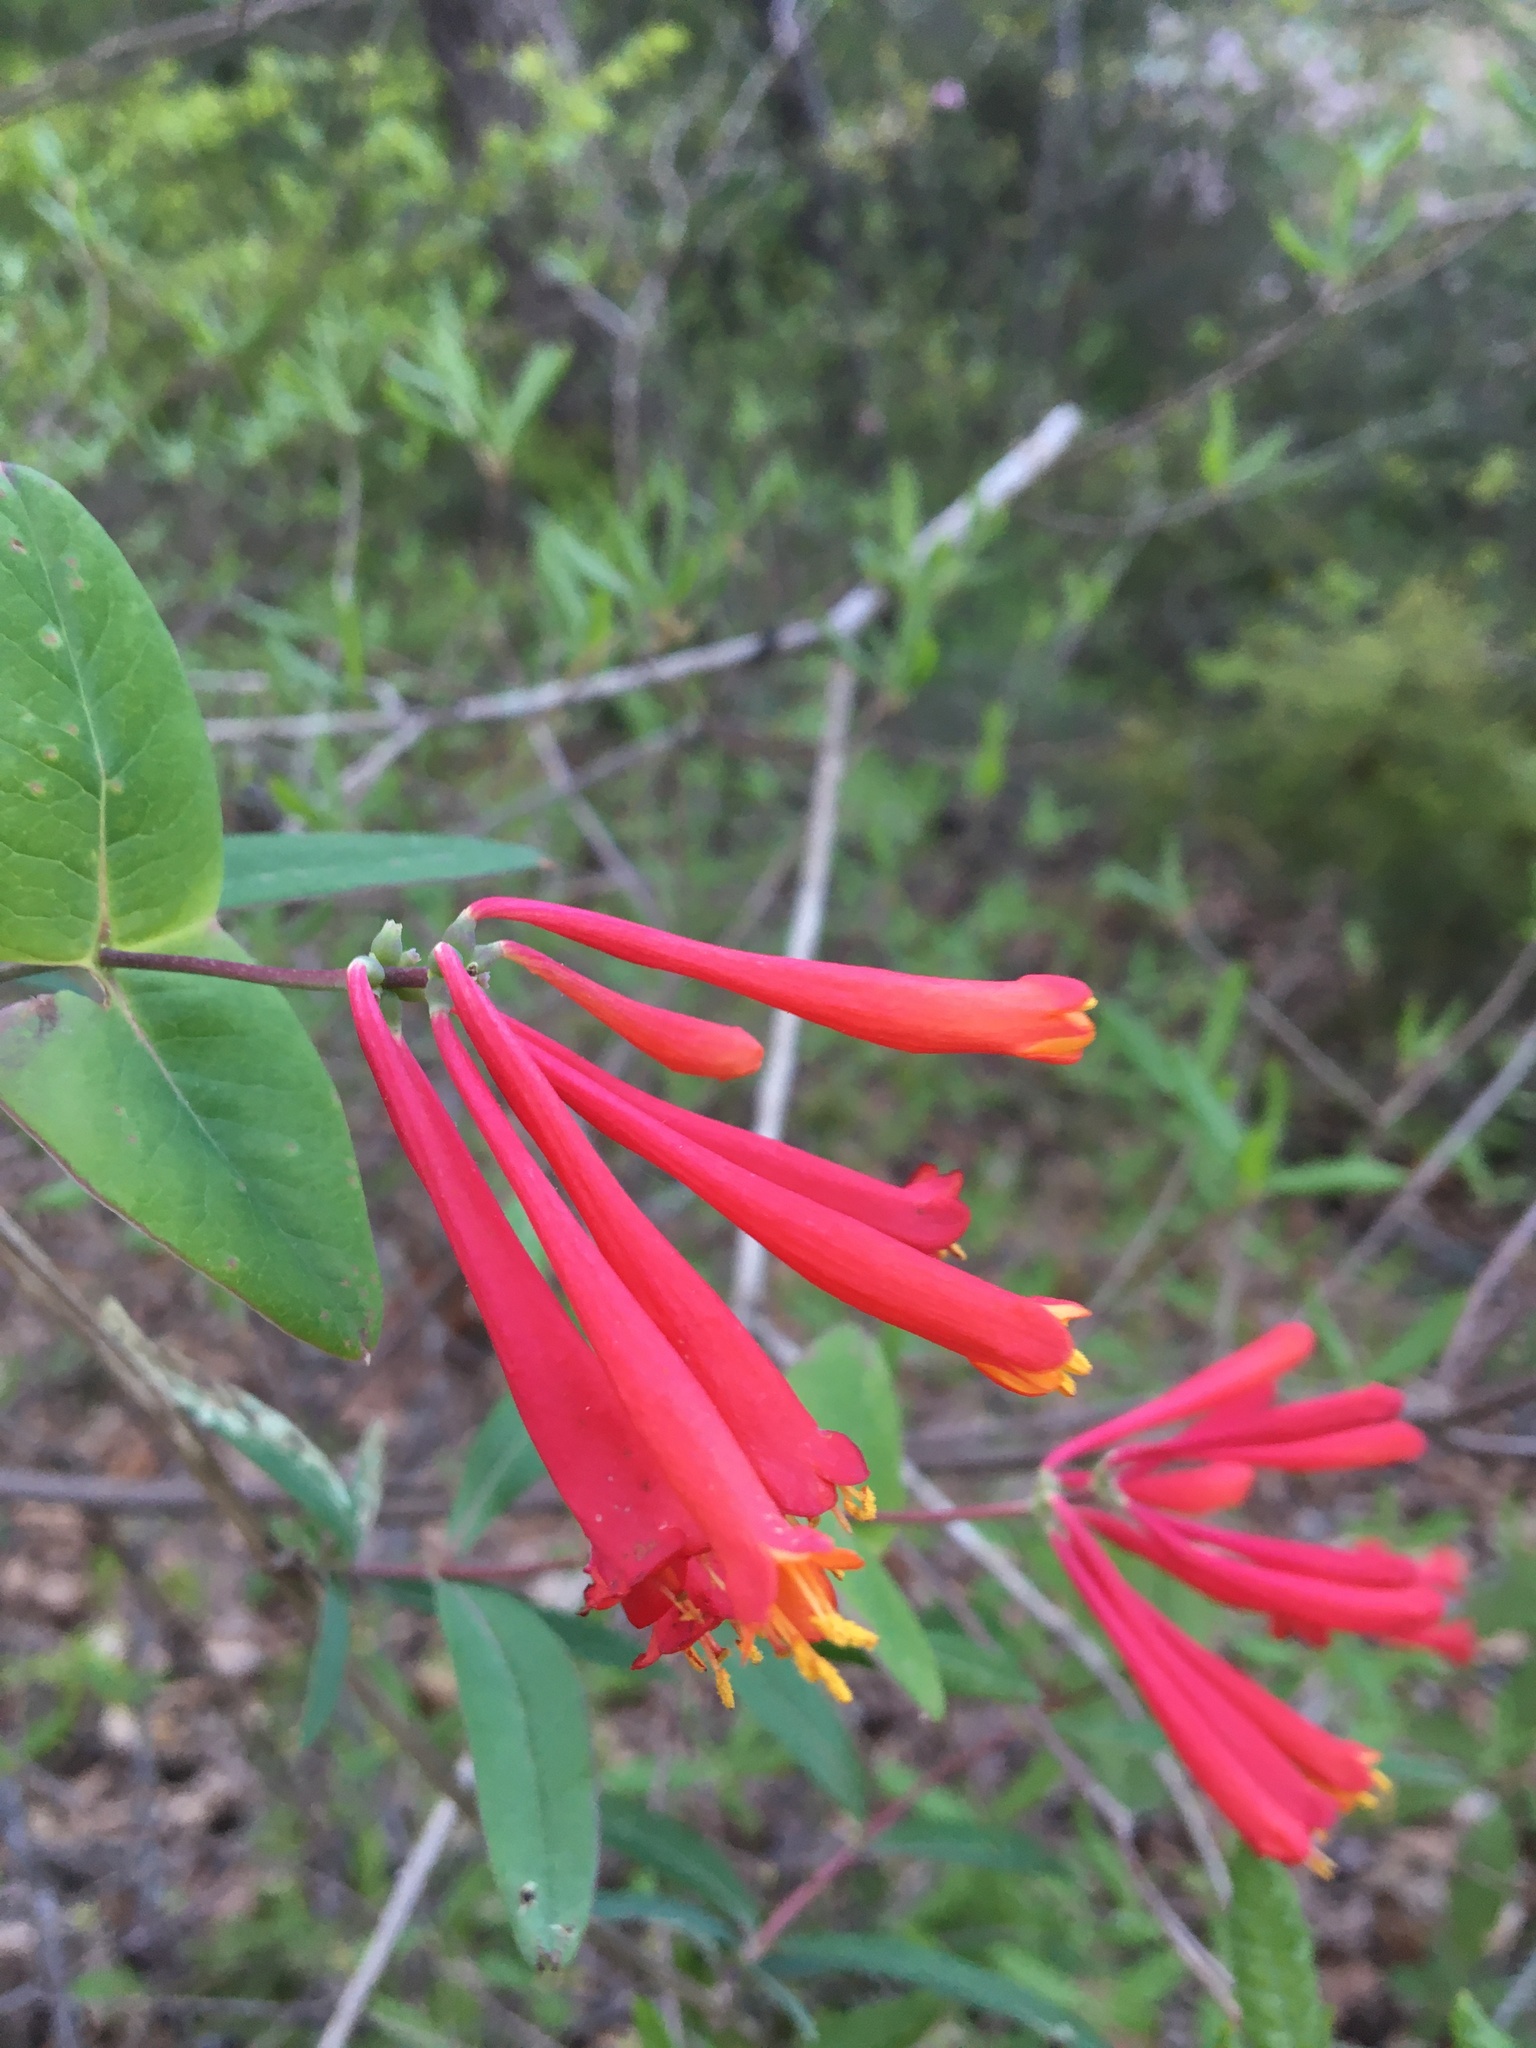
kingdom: Plantae
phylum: Tracheophyta
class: Magnoliopsida
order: Dipsacales
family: Caprifoliaceae
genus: Lonicera
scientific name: Lonicera sempervirens
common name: Coral honeysuckle
